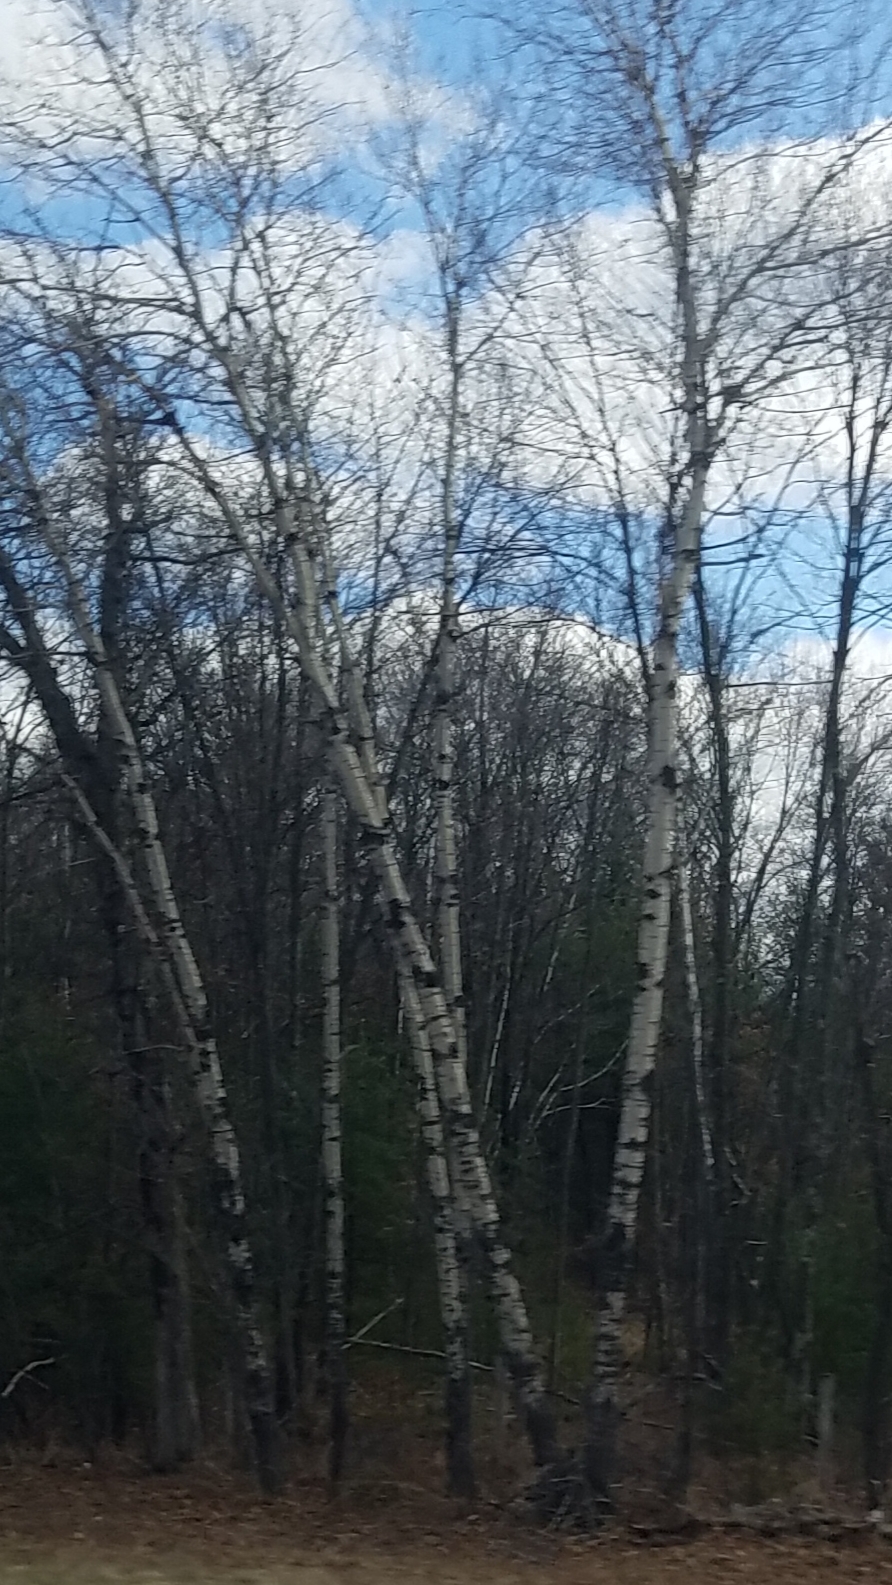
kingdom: Plantae
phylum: Tracheophyta
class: Magnoliopsida
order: Malpighiales
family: Salicaceae
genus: Populus
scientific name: Populus tremuloides
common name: Quaking aspen
